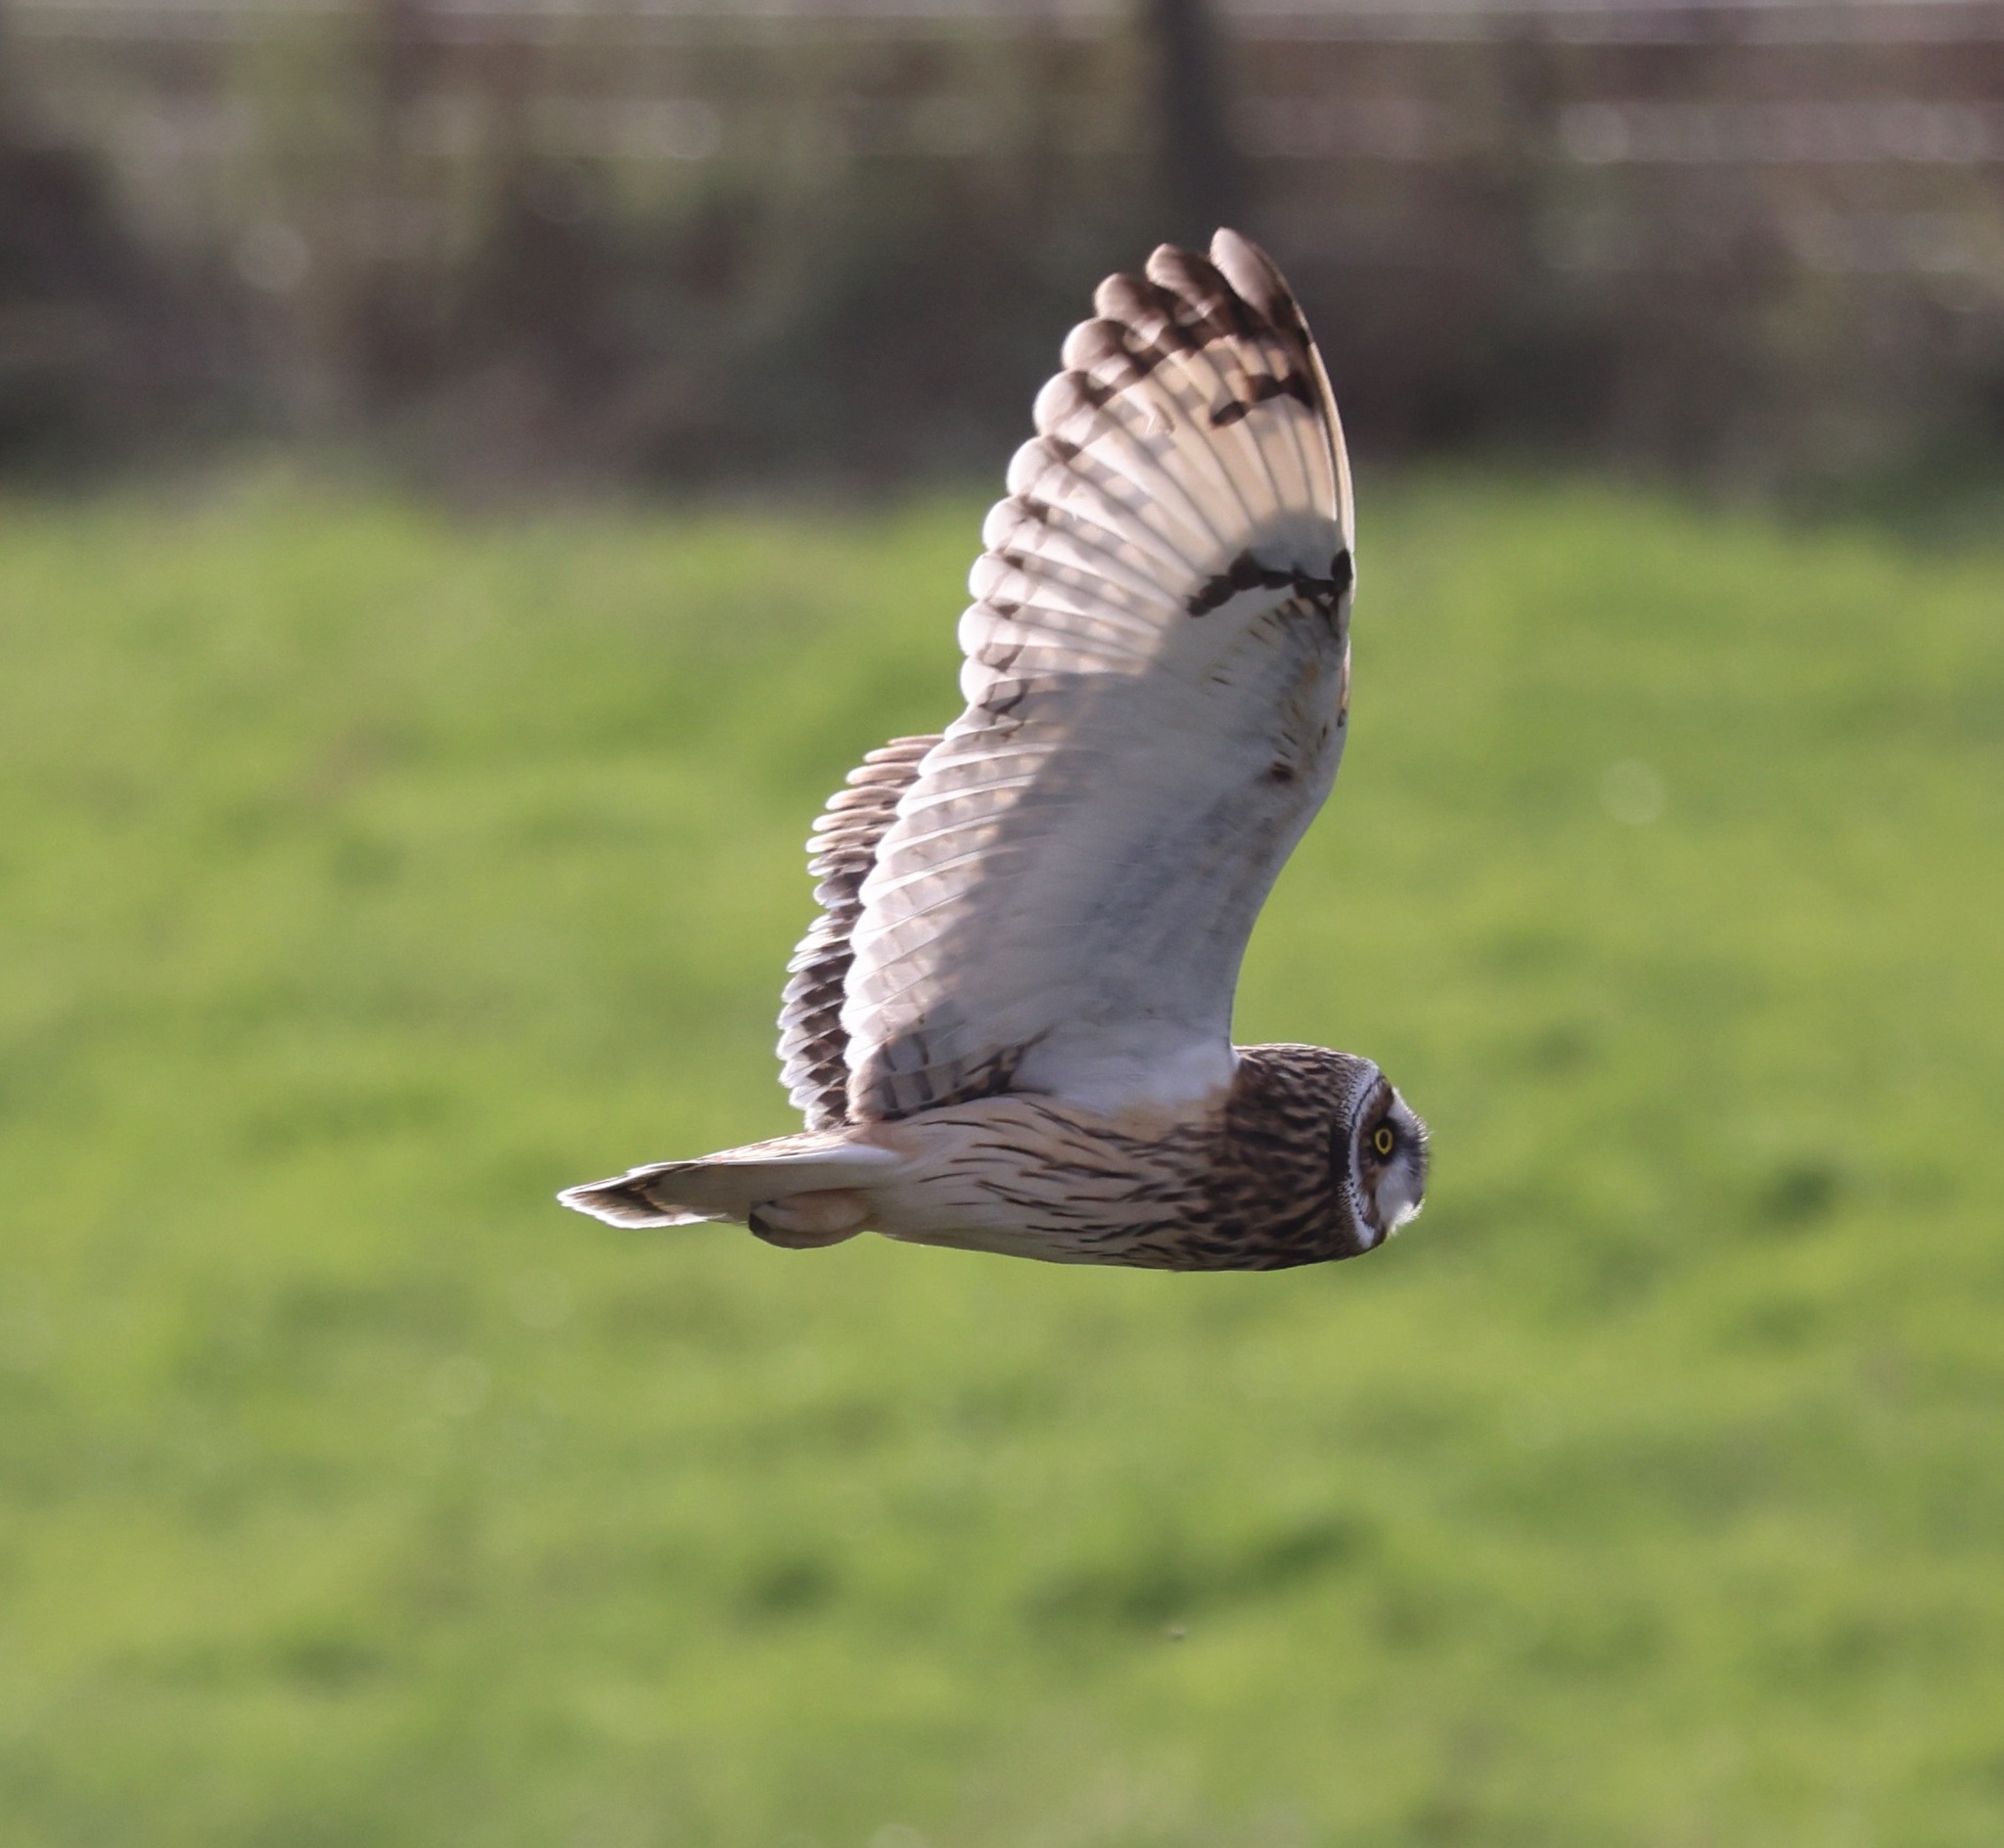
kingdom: Animalia
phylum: Chordata
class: Aves
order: Strigiformes
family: Strigidae
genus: Asio
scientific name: Asio flammeus
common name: Short-eared owl
